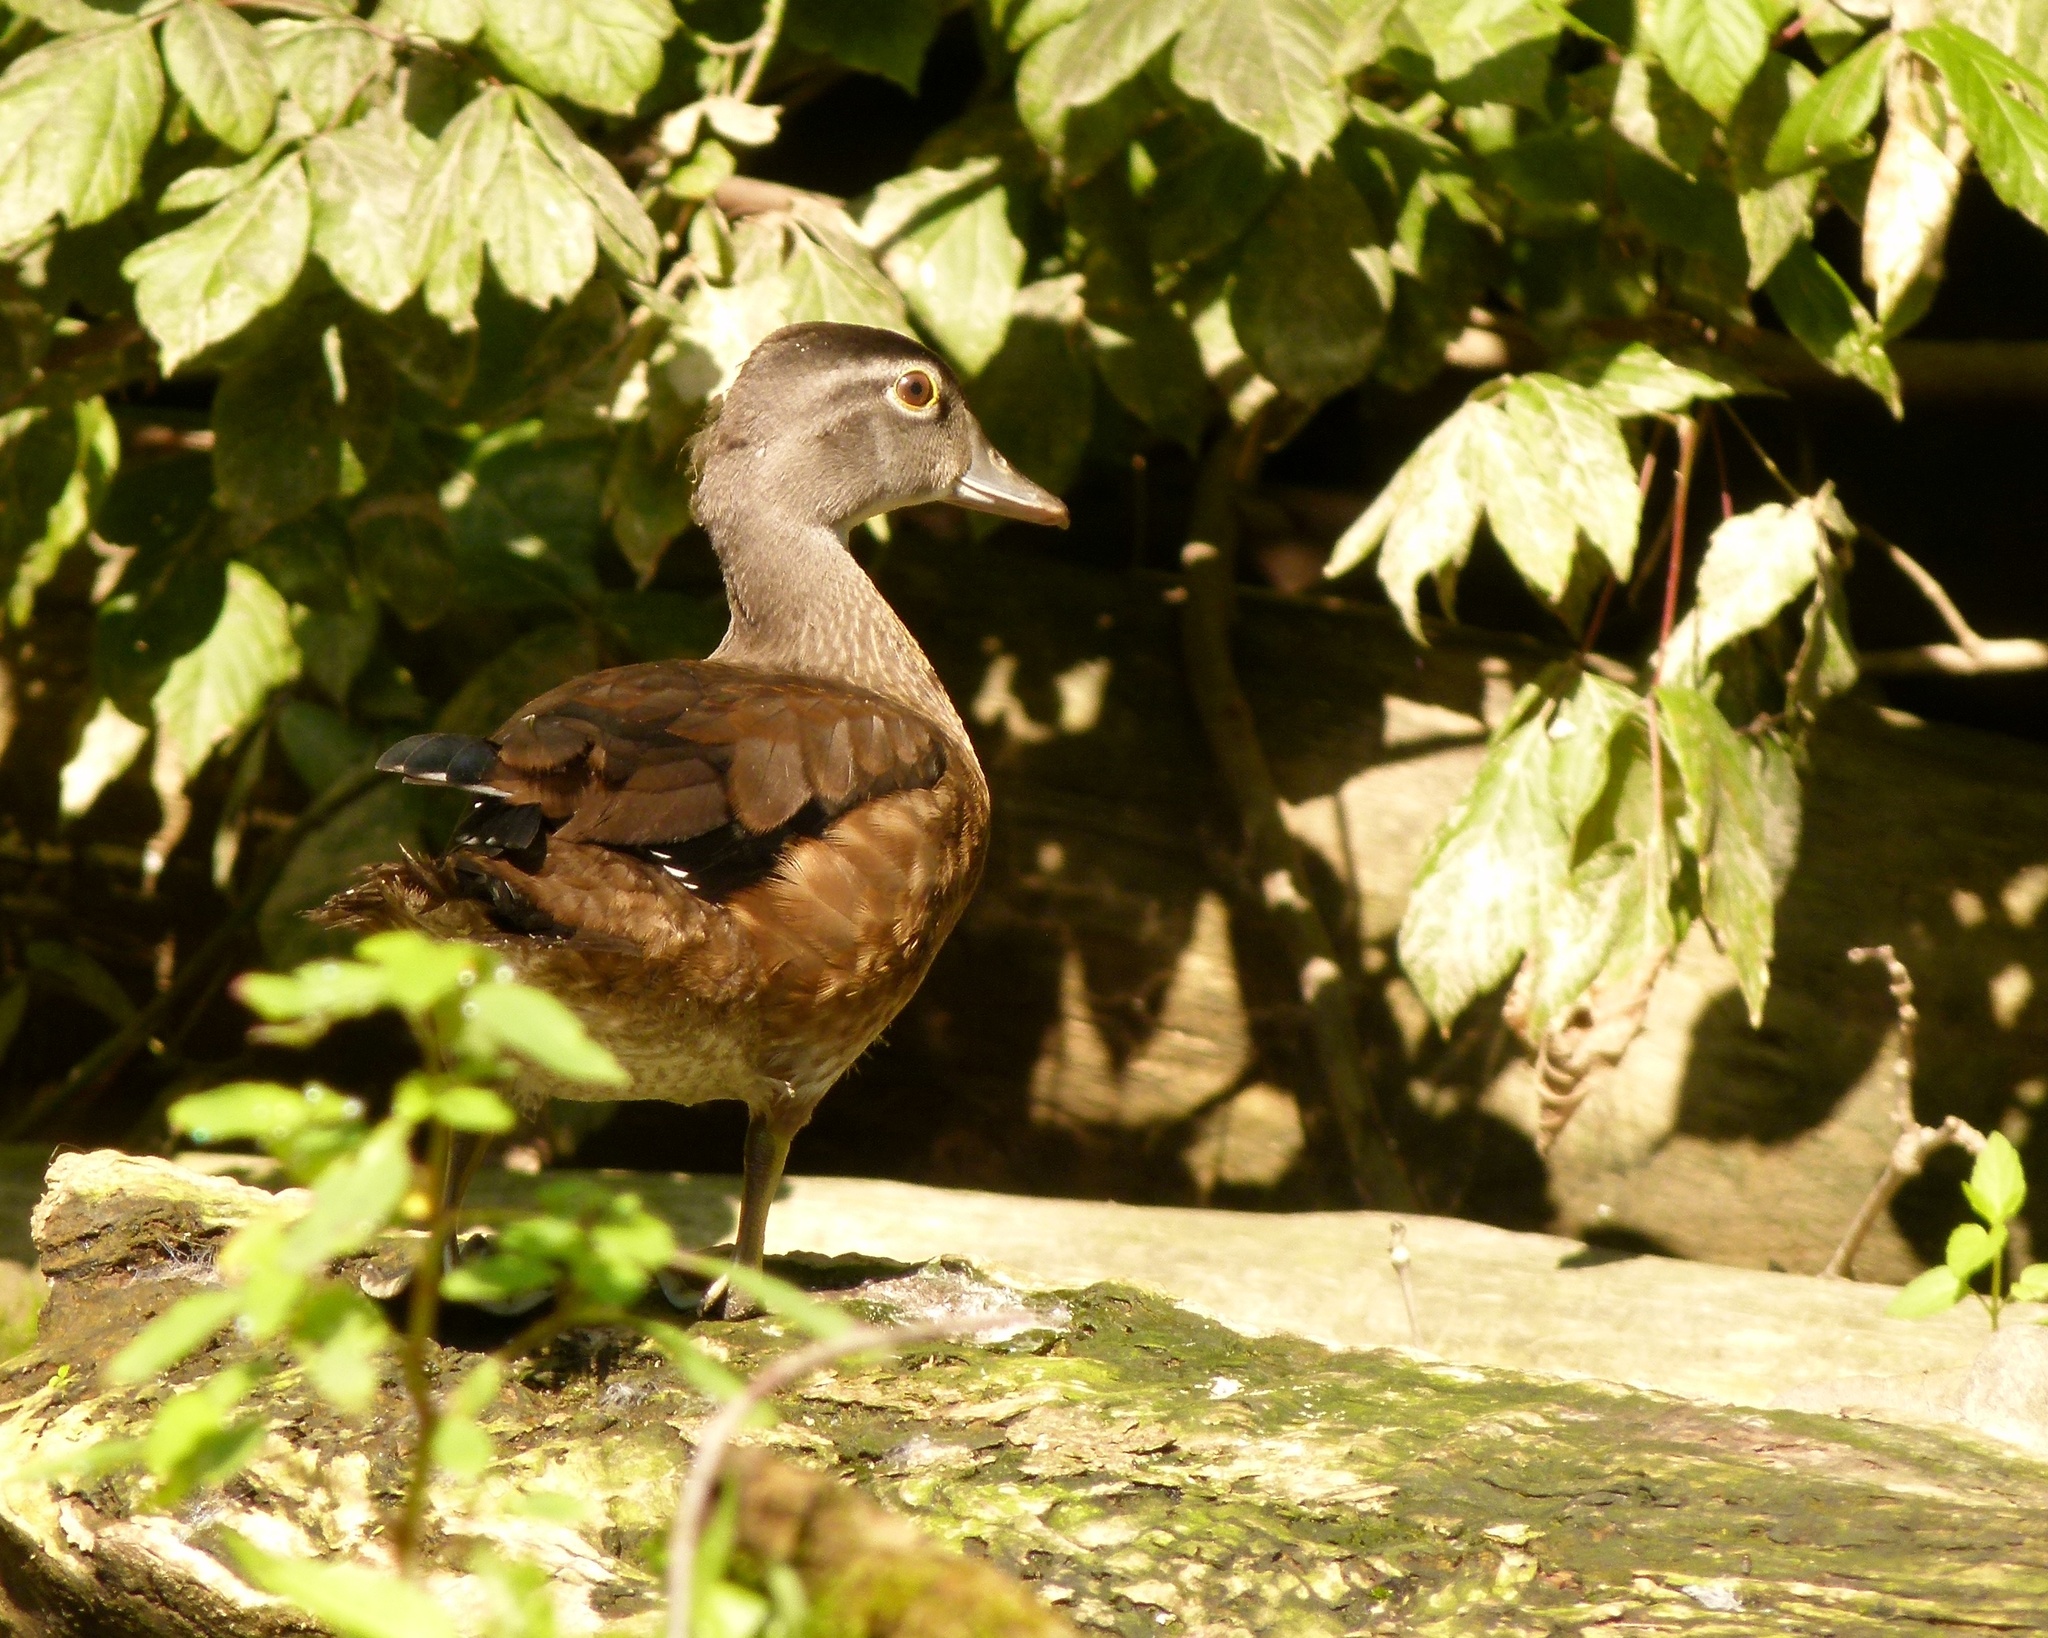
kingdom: Animalia
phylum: Chordata
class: Aves
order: Anseriformes
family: Anatidae
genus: Aix
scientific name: Aix sponsa
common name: Wood duck
